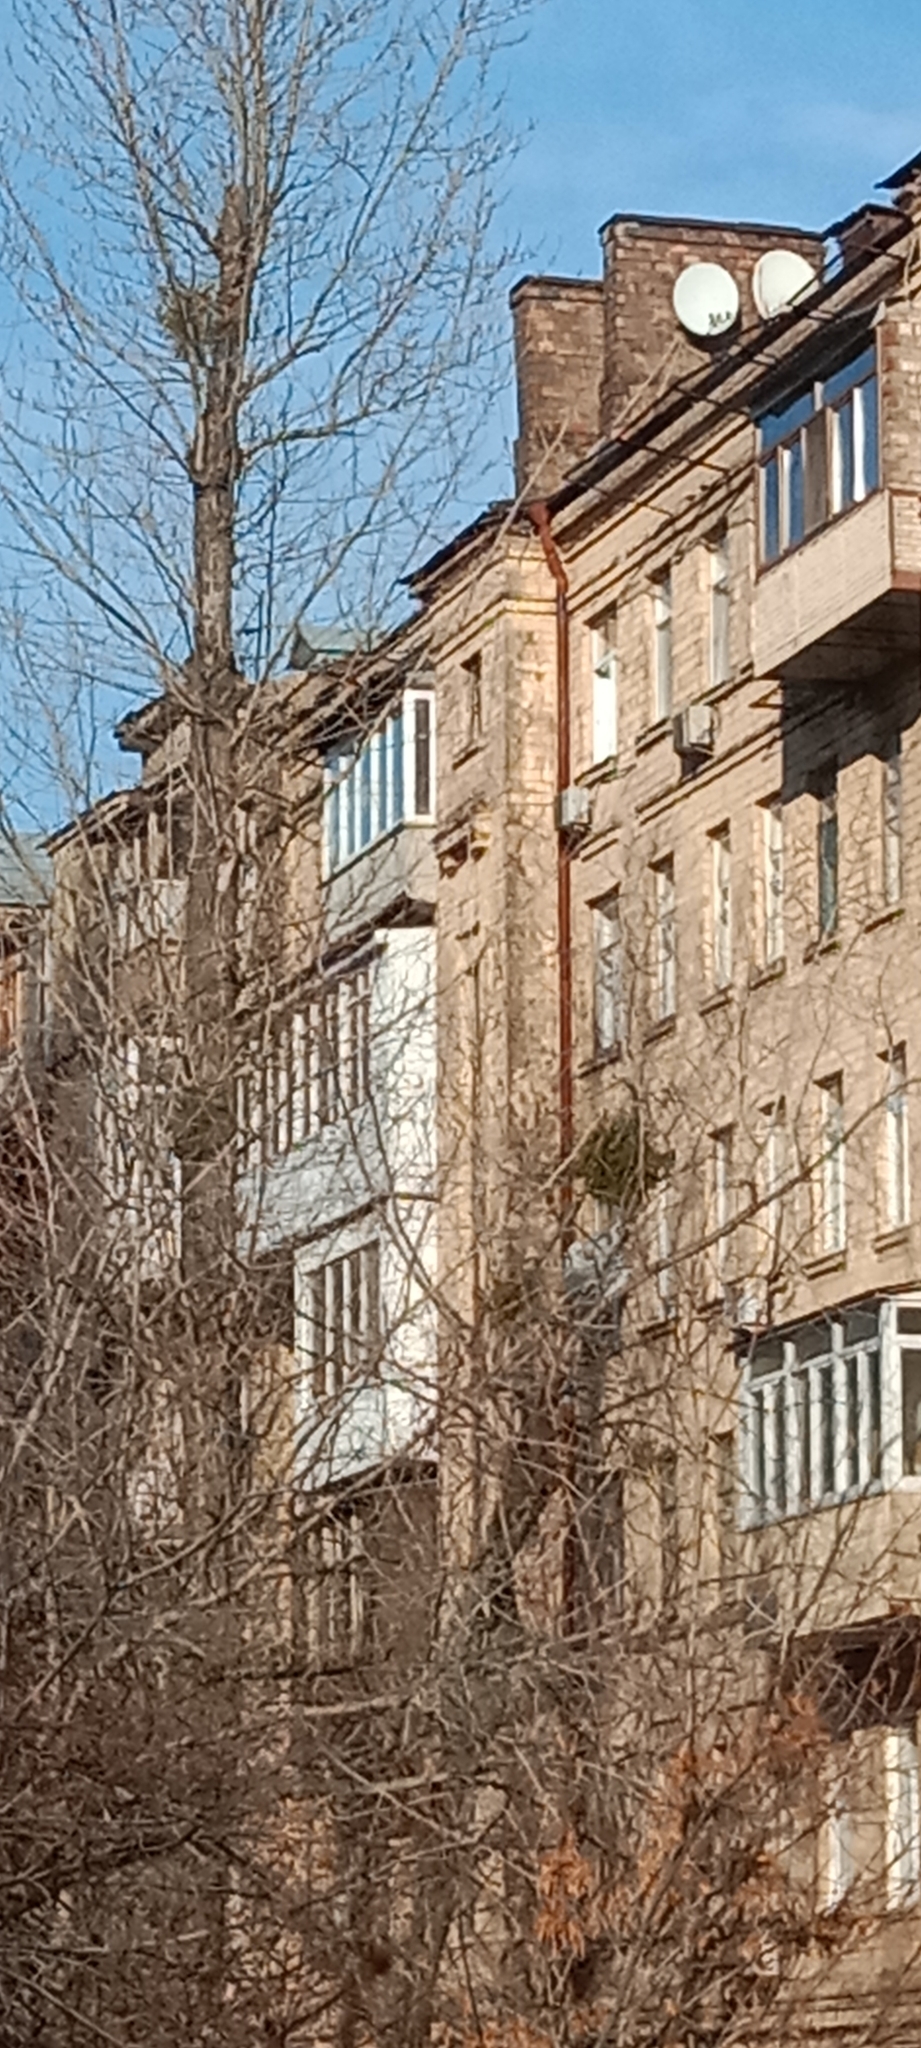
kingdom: Plantae
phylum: Tracheophyta
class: Magnoliopsida
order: Santalales
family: Viscaceae
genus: Viscum
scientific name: Viscum album
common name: Mistletoe
